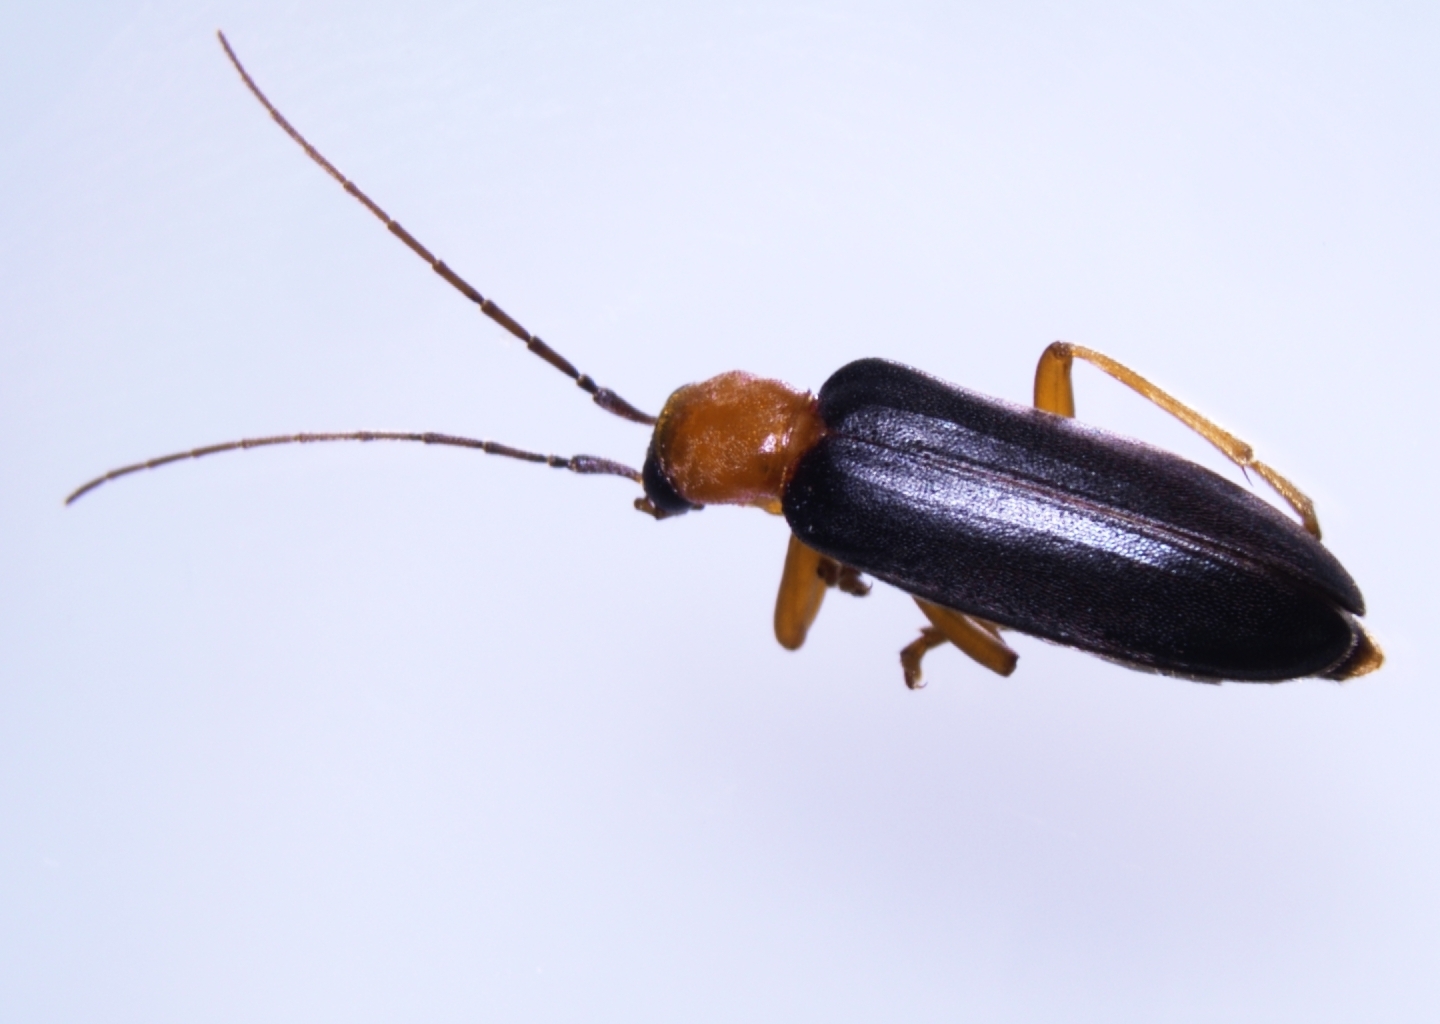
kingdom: Animalia
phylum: Arthropoda
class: Insecta
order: Coleoptera
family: Oedemeridae
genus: Ananca
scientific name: Ananca bicolor
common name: Red-black false blister-beetle
